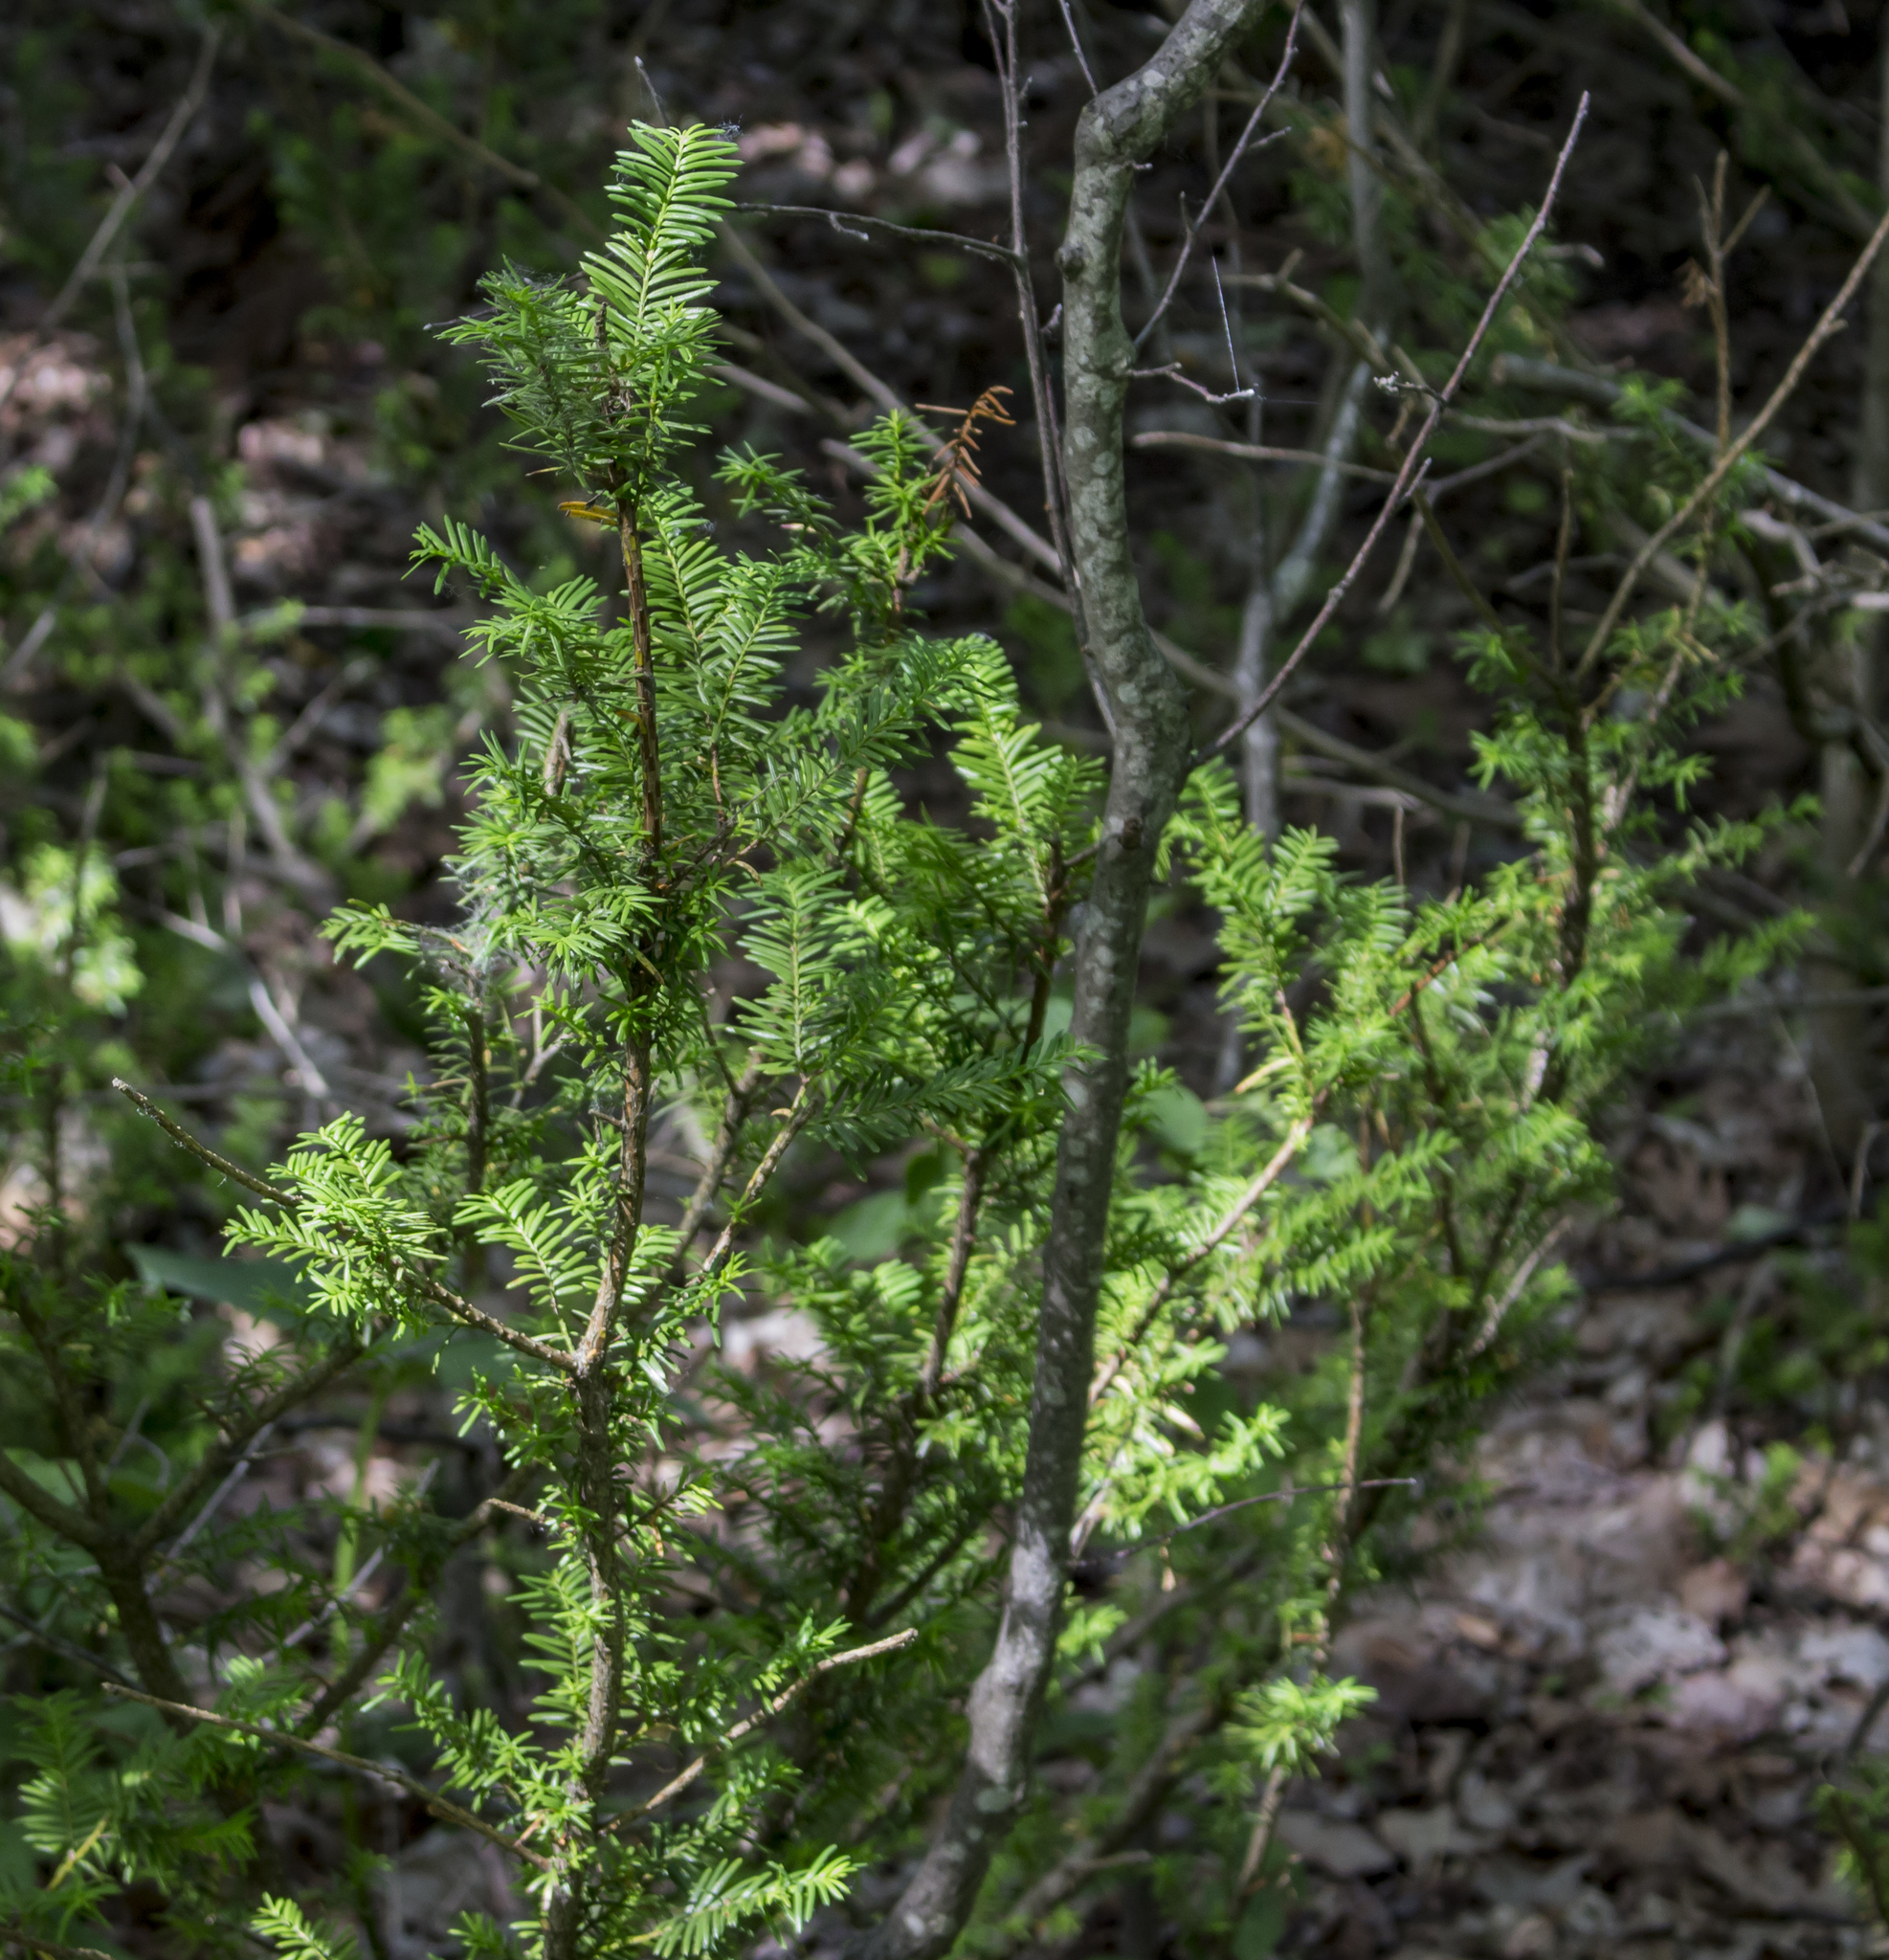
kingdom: Plantae
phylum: Tracheophyta
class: Pinopsida
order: Pinales
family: Taxaceae
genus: Taxus
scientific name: Taxus canadensis
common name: American yew
